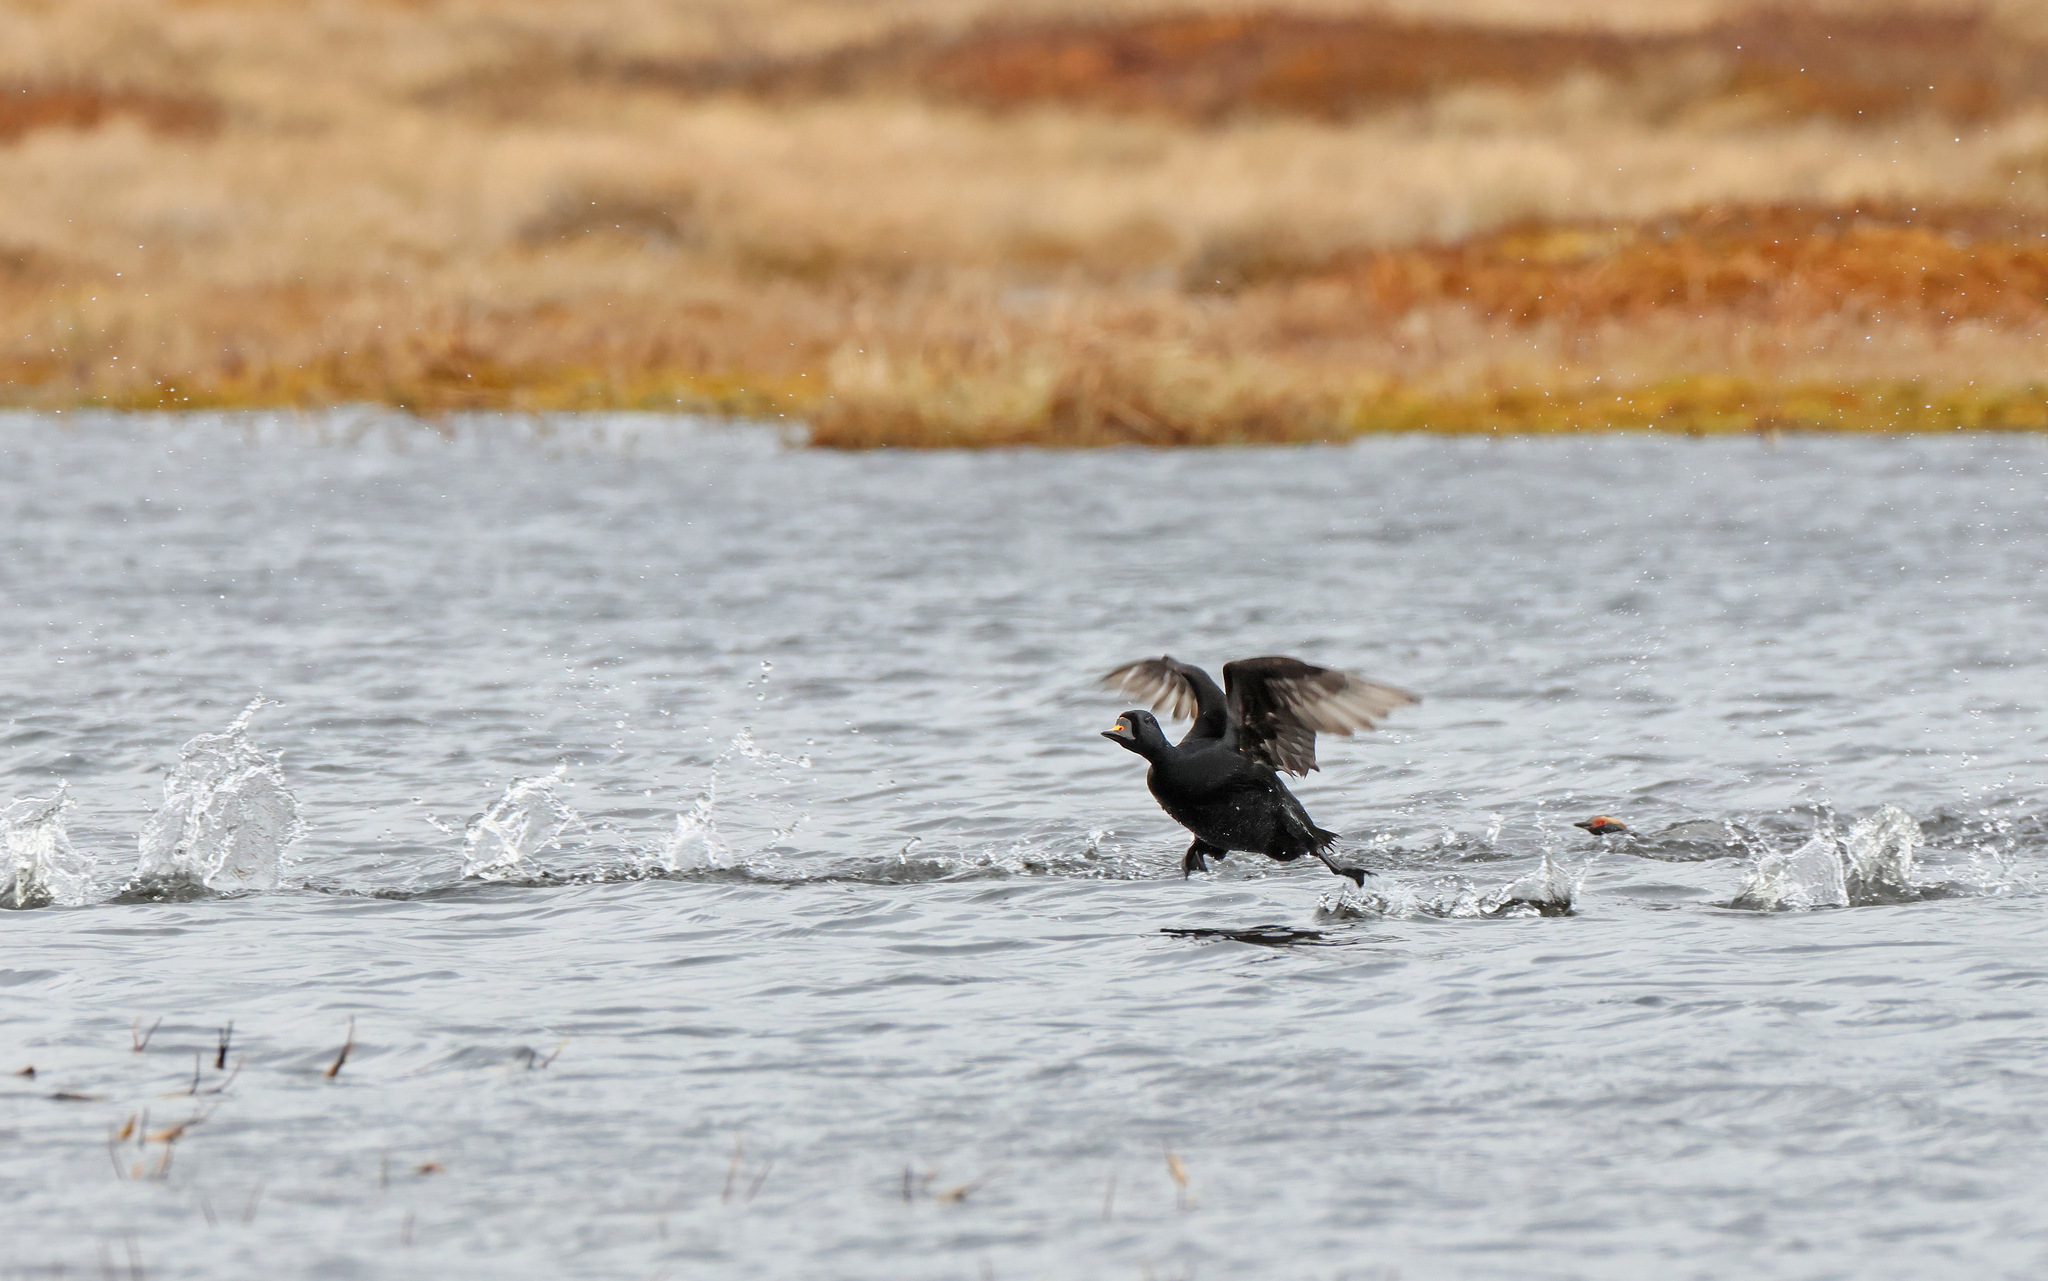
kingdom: Animalia
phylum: Chordata
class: Aves
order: Anseriformes
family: Anatidae
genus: Melanitta
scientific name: Melanitta nigra
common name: Common scoter
